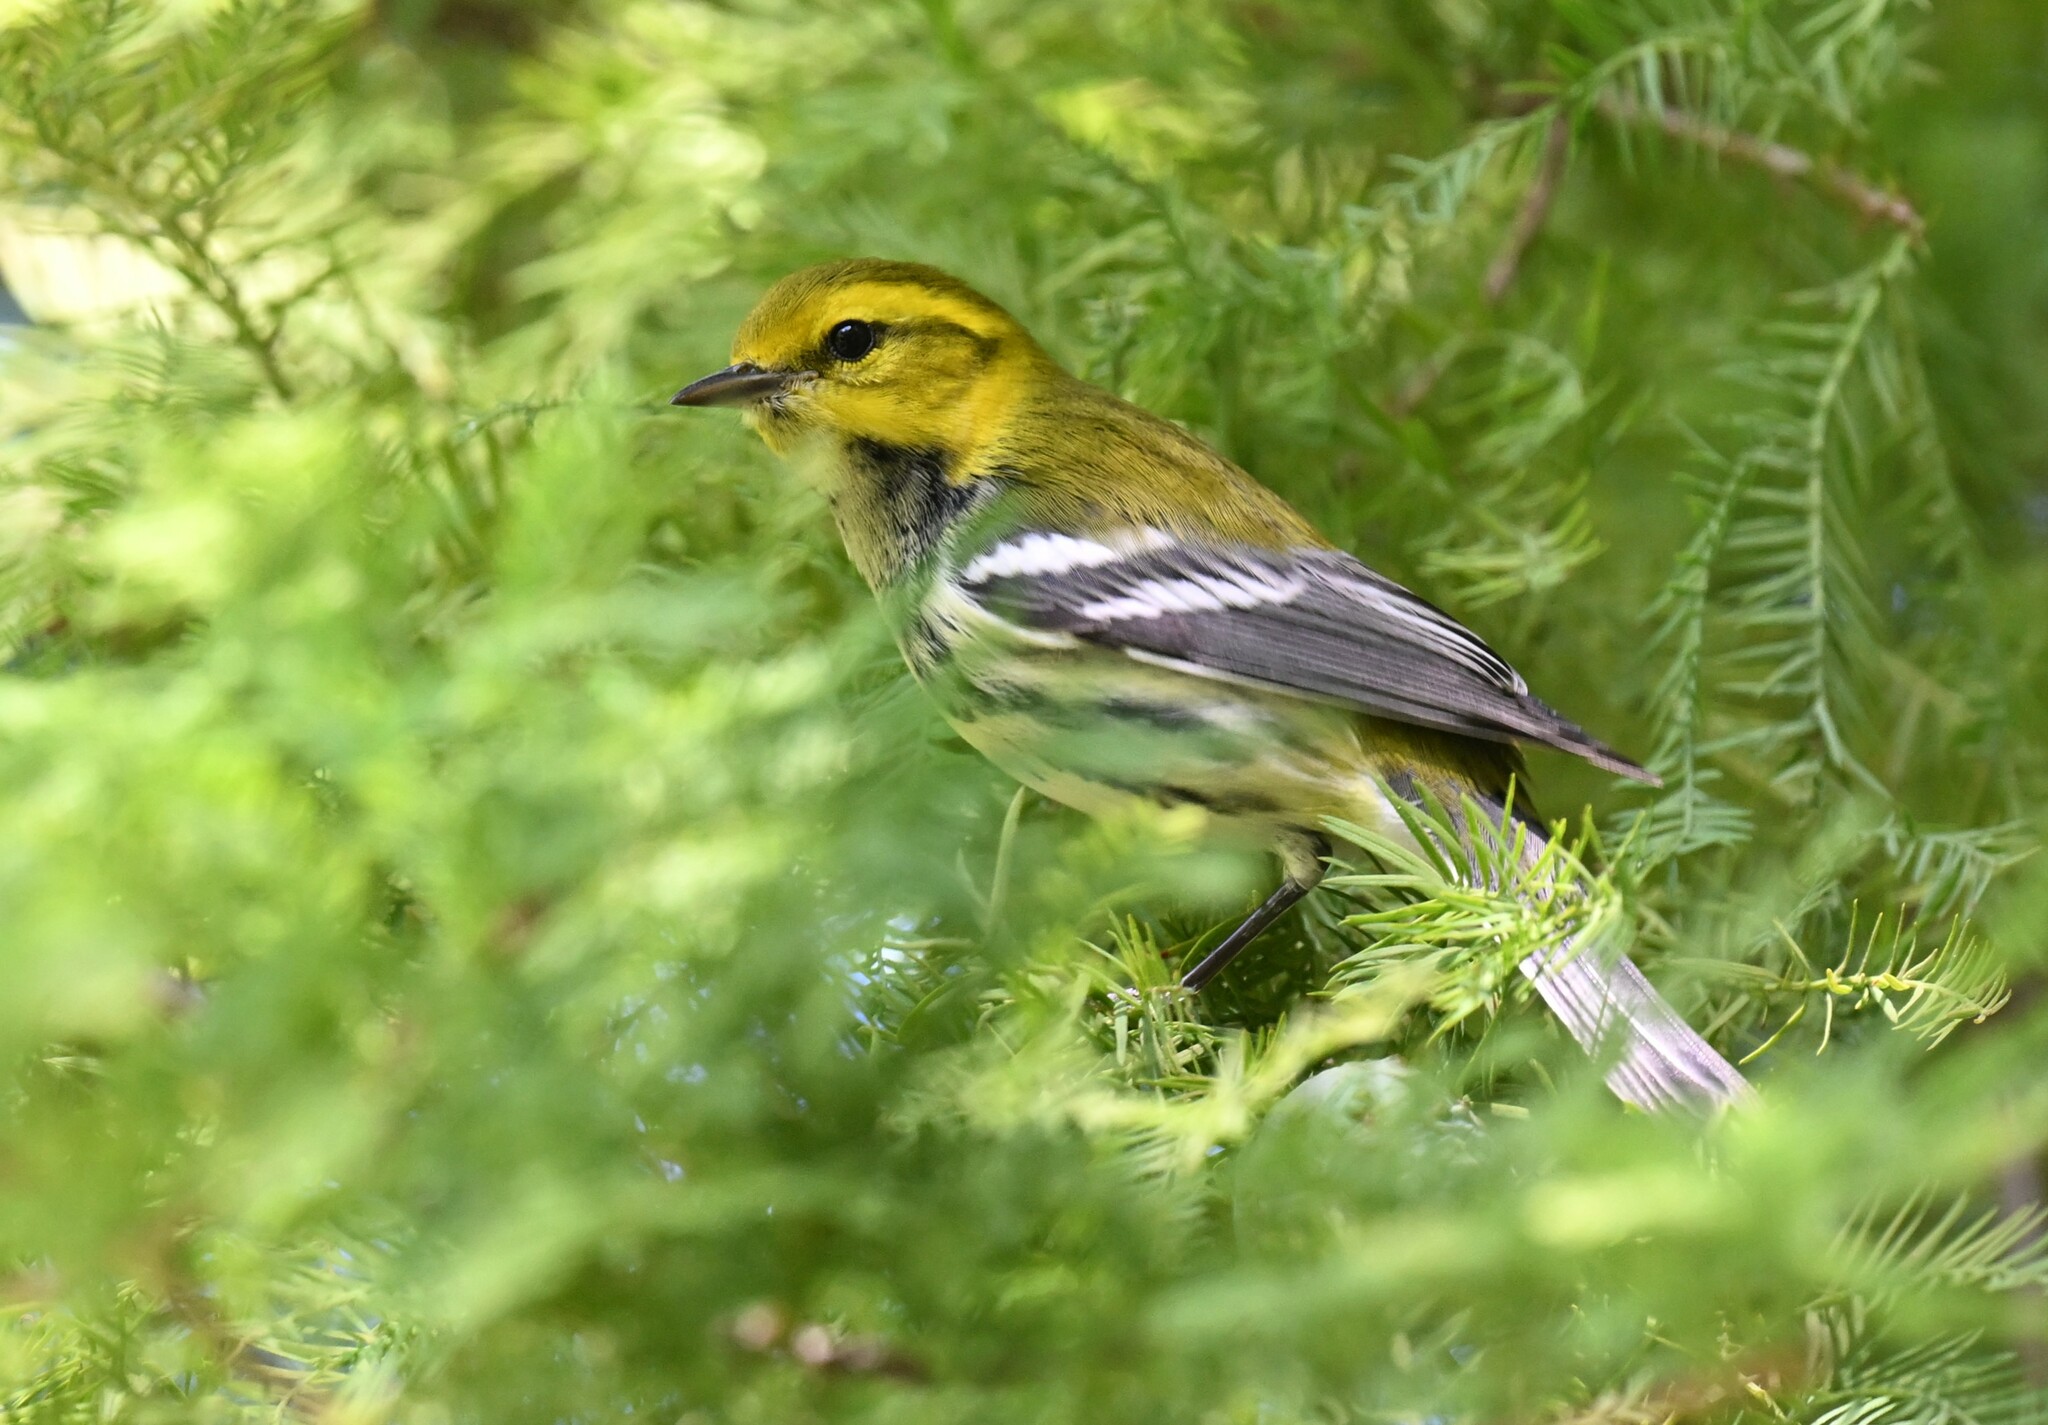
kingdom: Animalia
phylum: Chordata
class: Aves
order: Passeriformes
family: Parulidae
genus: Setophaga
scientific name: Setophaga virens
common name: Black-throated green warbler
